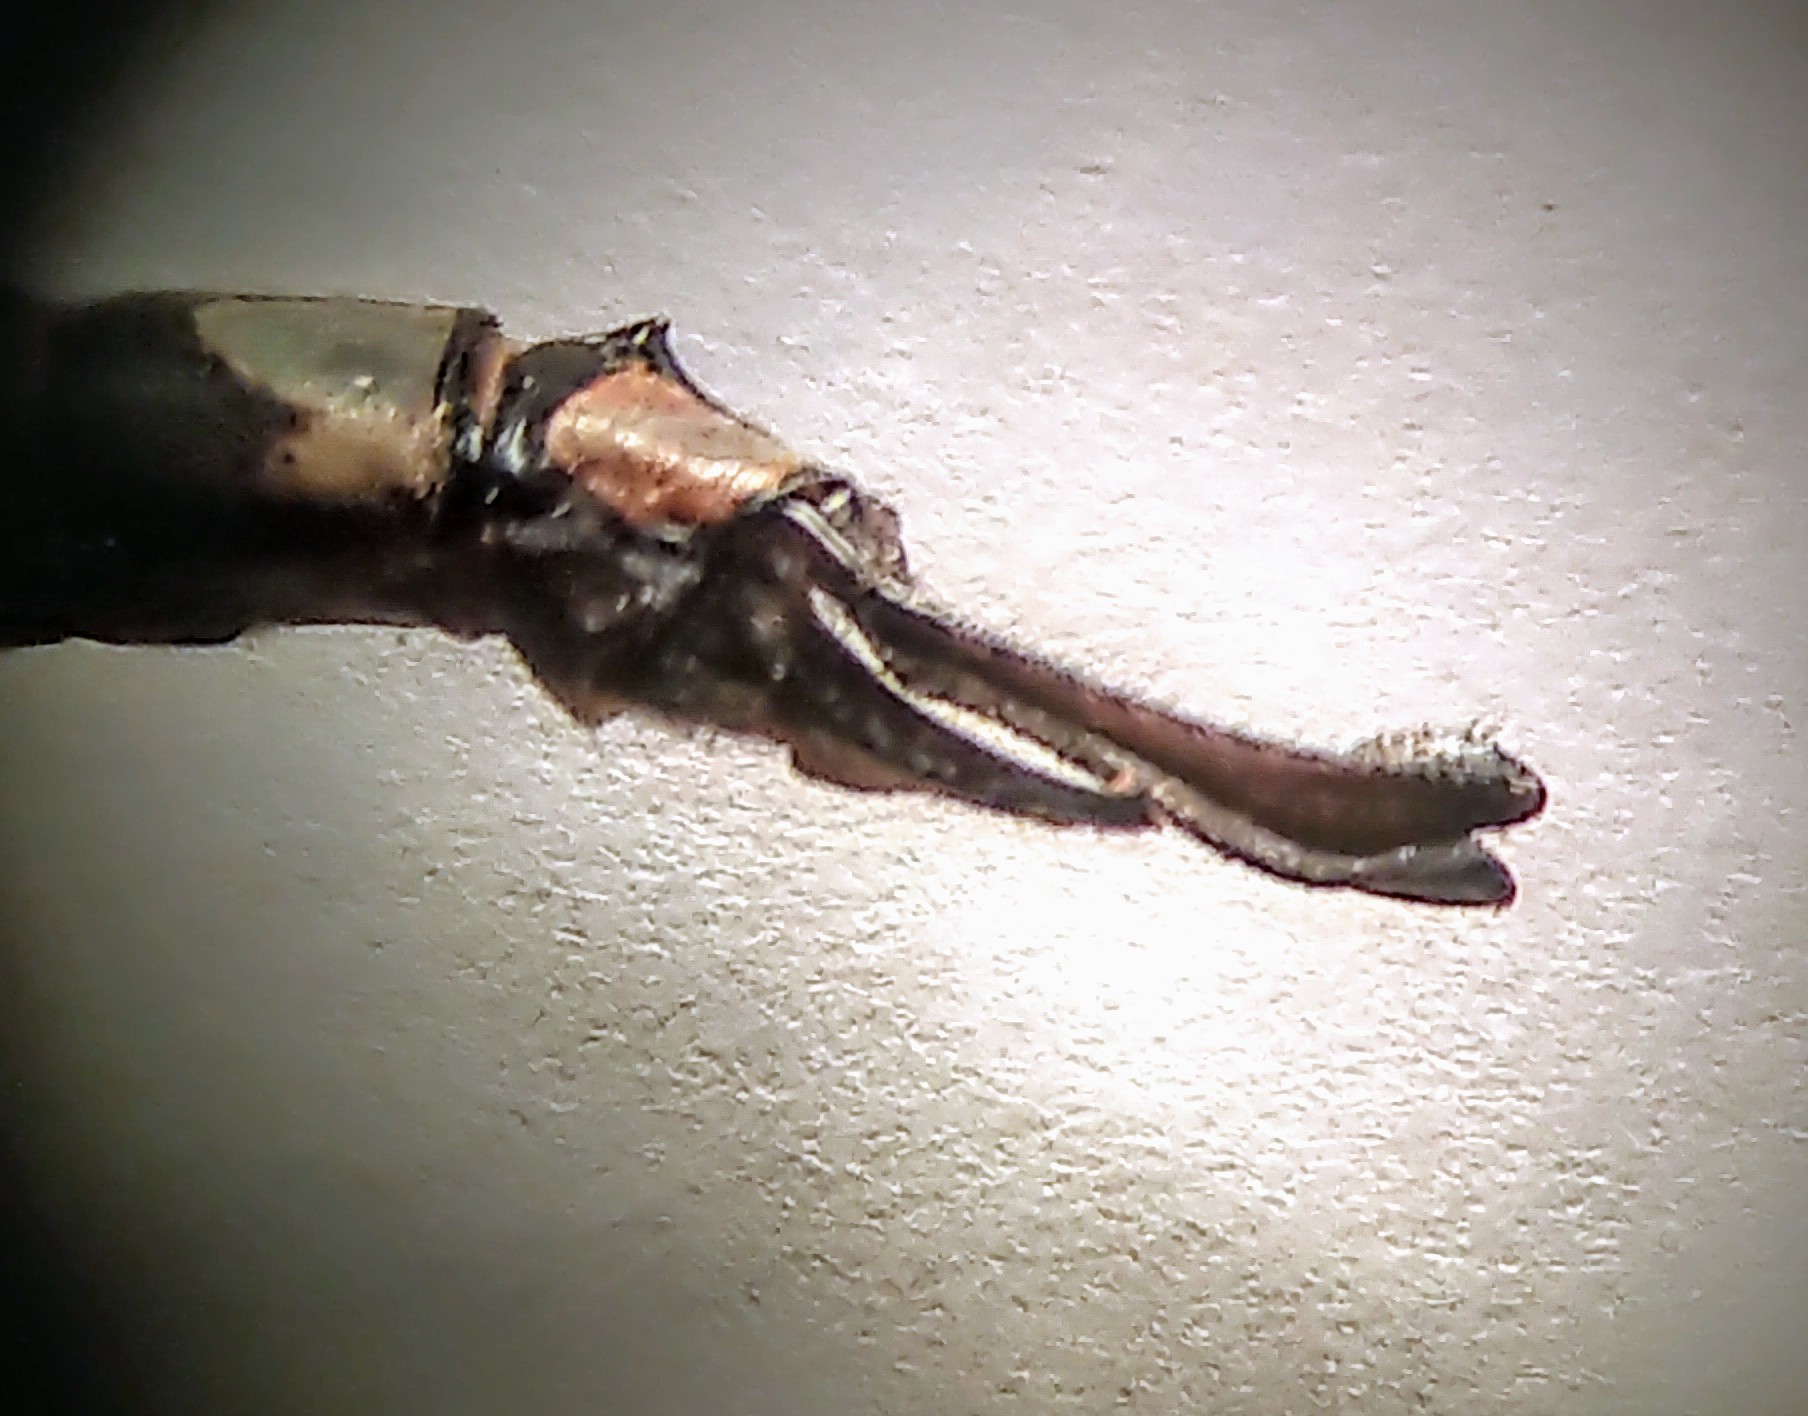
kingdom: Animalia
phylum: Arthropoda
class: Insecta
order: Odonata
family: Aeshnidae
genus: Aeshna
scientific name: Aeshna eremita
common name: Lake darner
